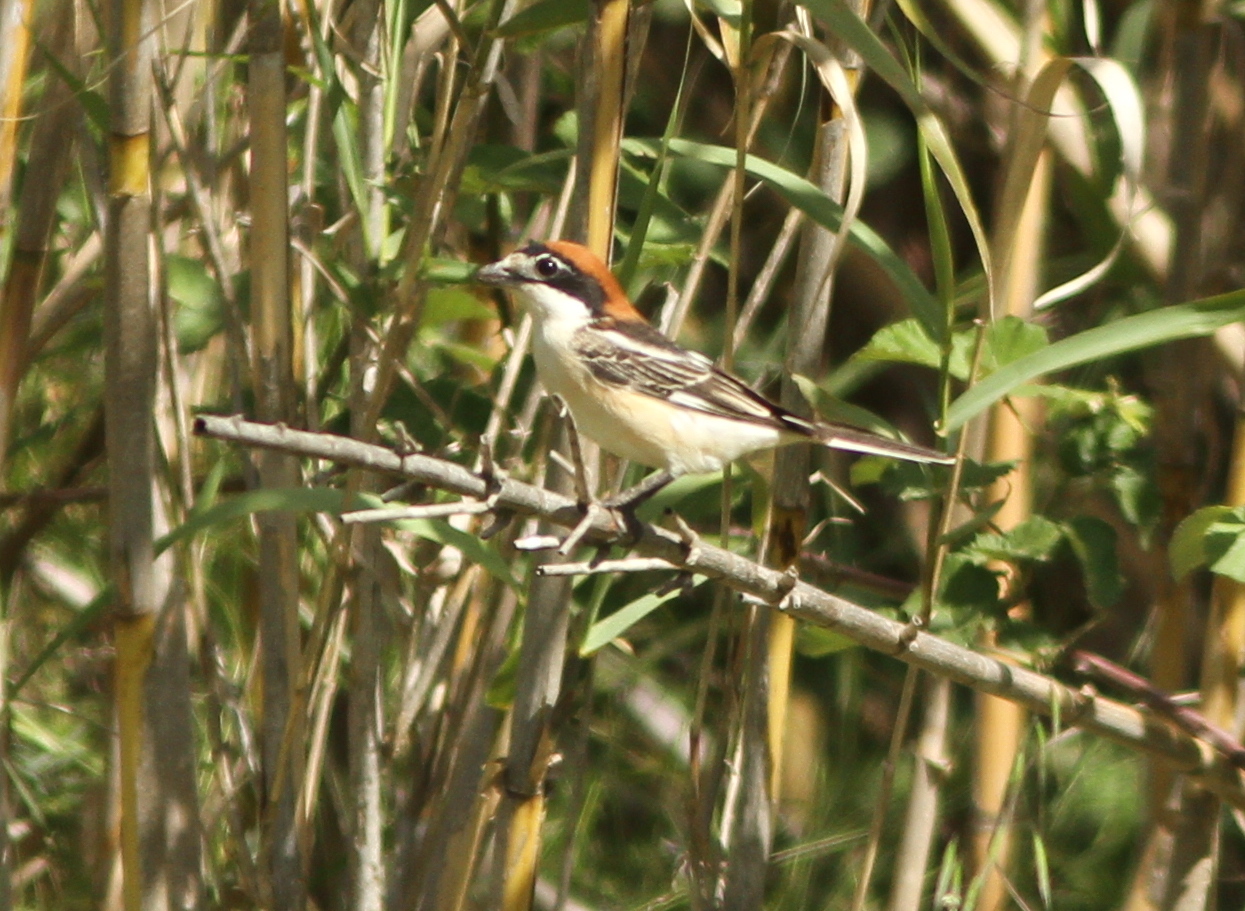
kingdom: Animalia
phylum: Chordata
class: Aves
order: Passeriformes
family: Laniidae
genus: Lanius
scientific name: Lanius senator
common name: Woodchat shrike
